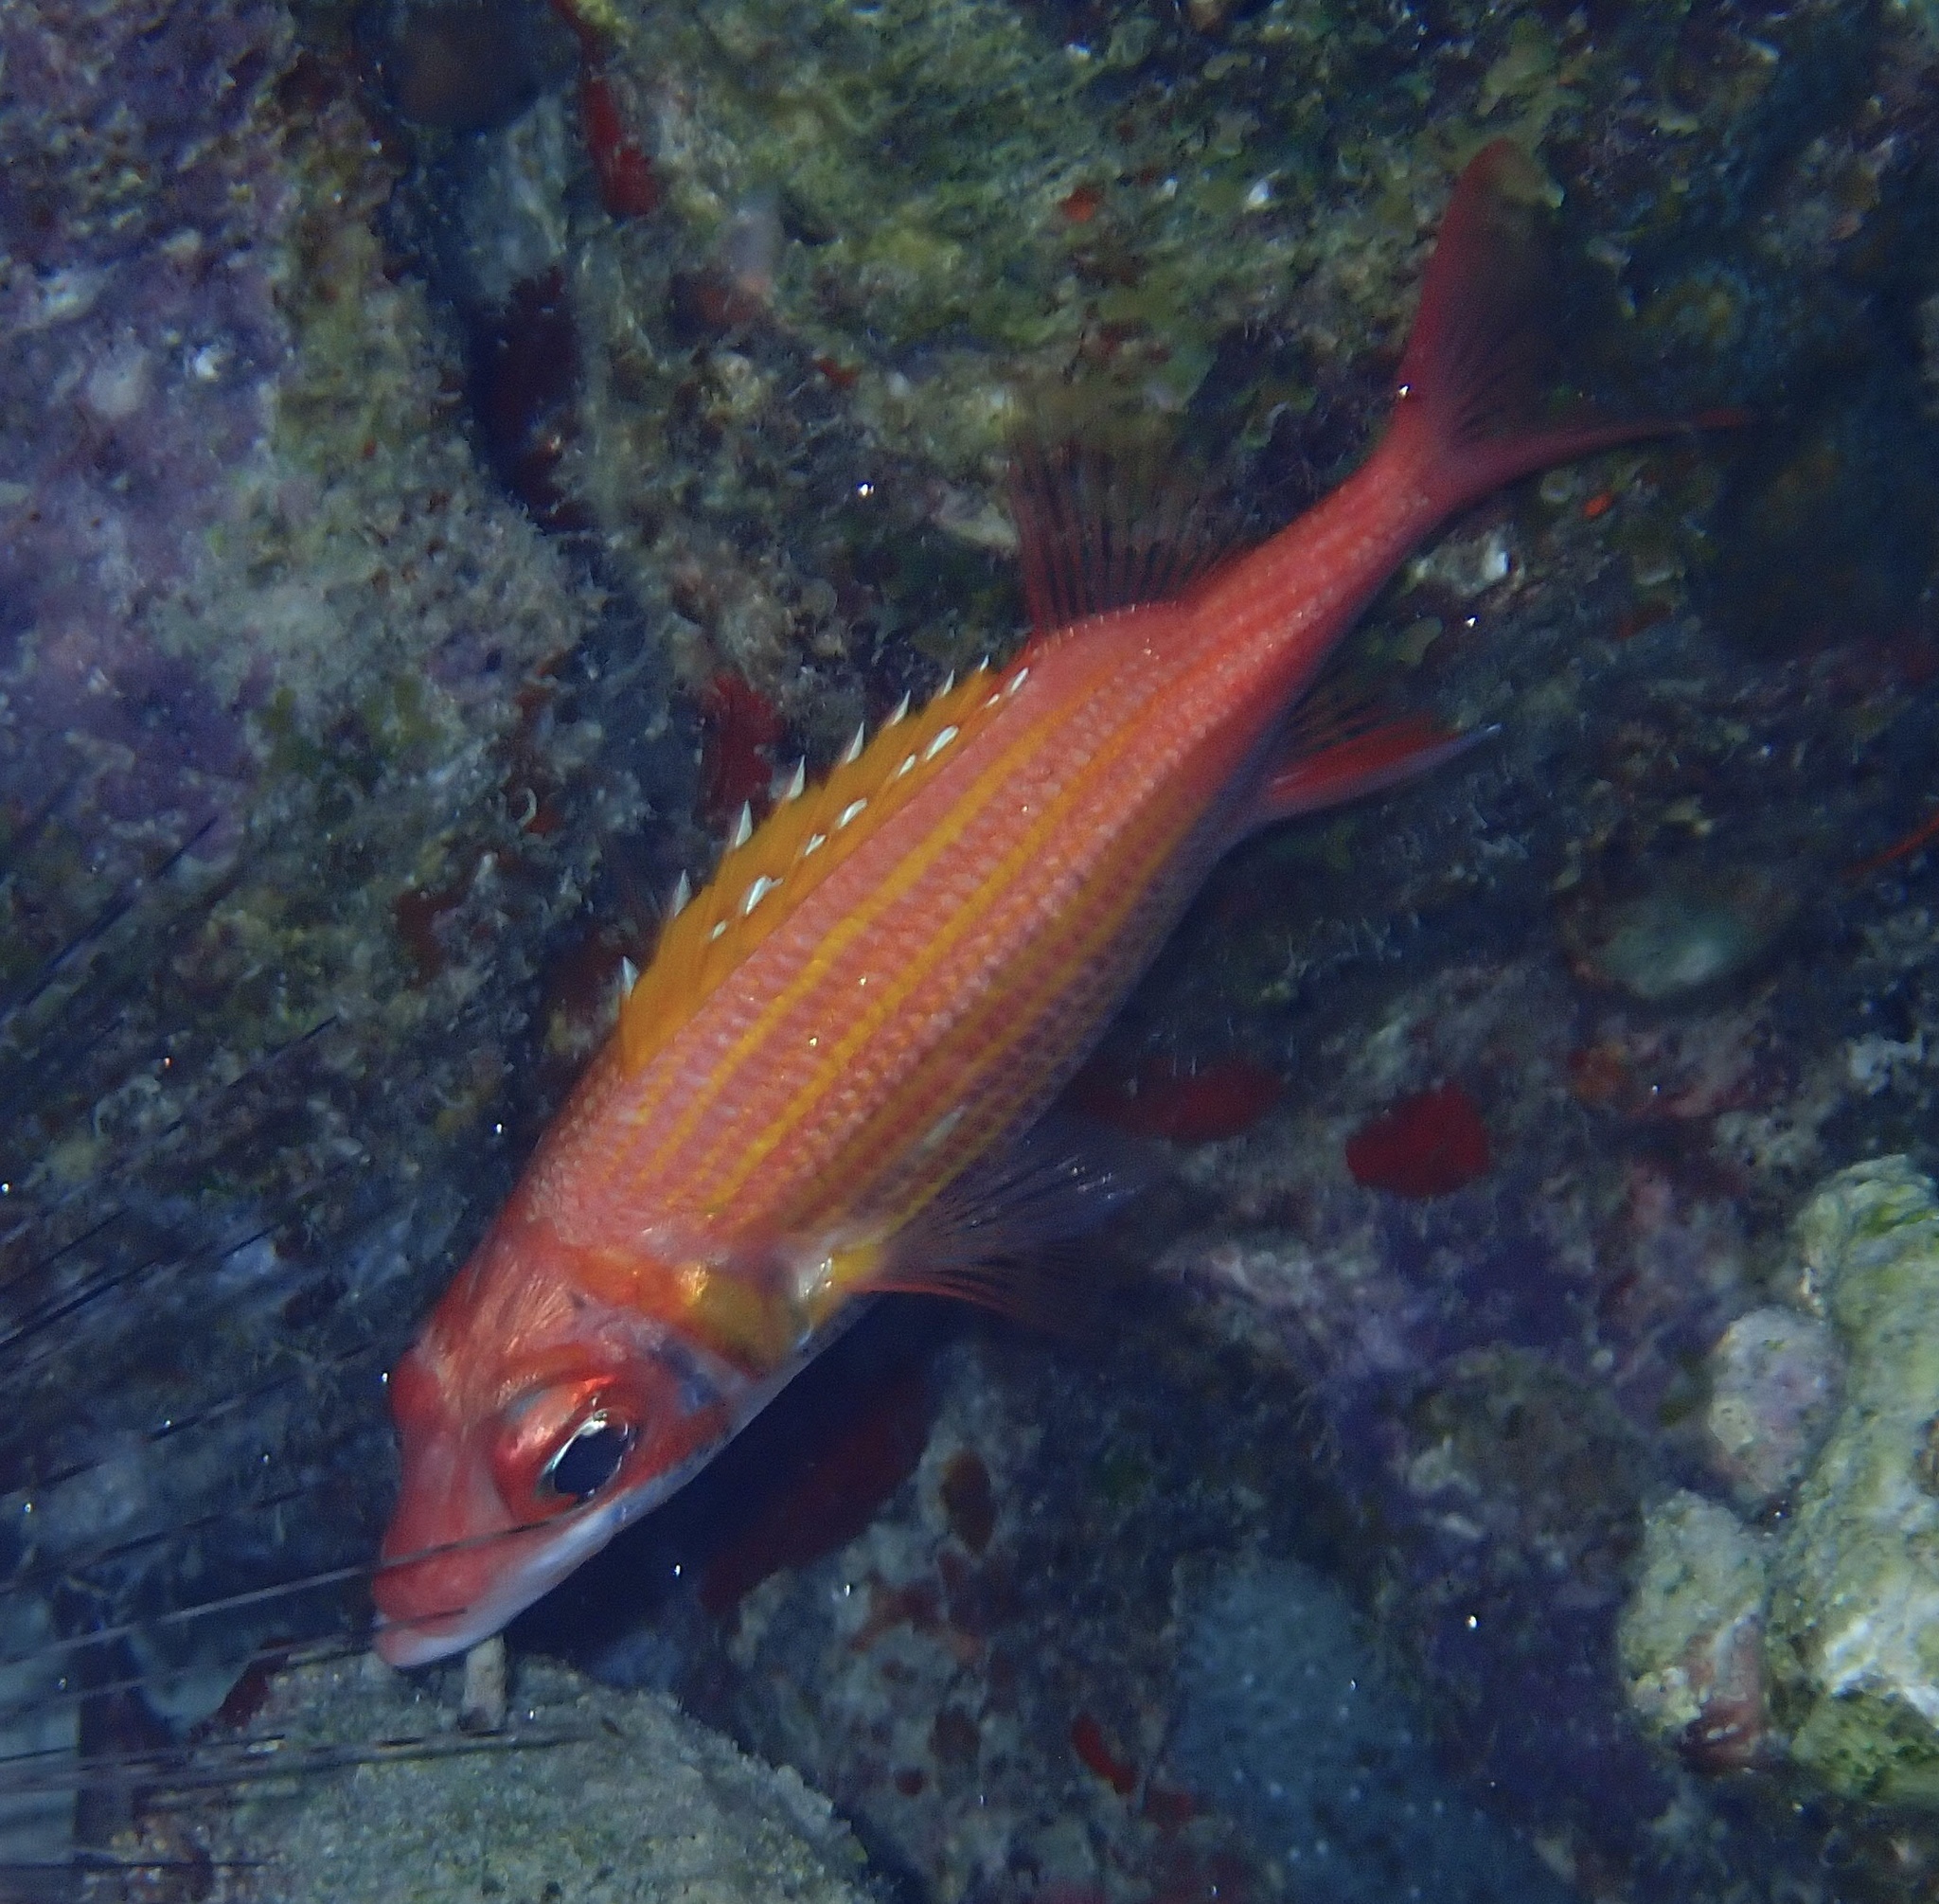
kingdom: Animalia
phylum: Chordata
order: Beryciformes
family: Holocentridae
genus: Neoniphon
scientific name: Neoniphon marianus
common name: Longjaw squirrelfish
